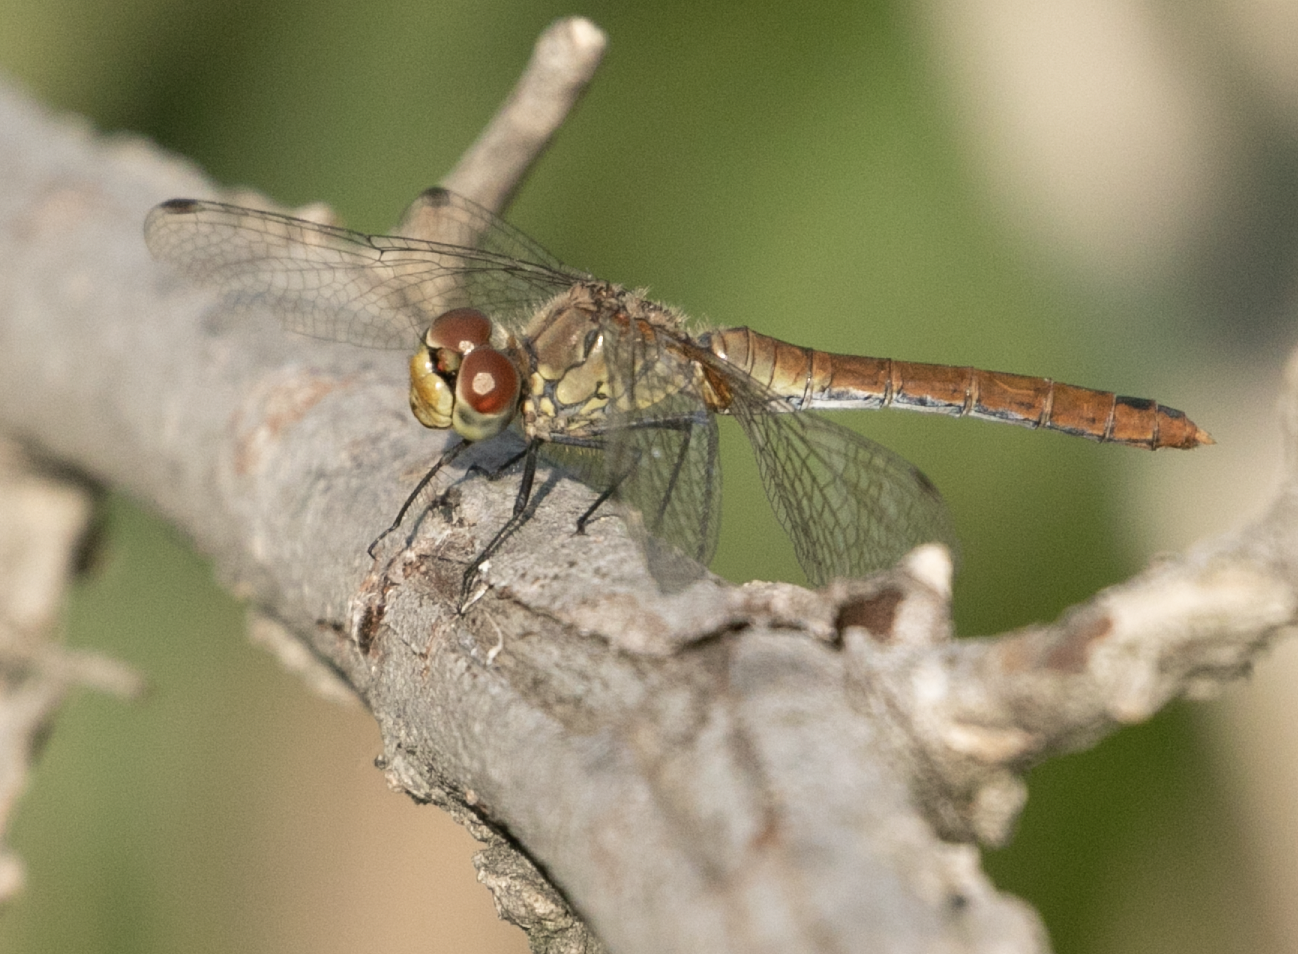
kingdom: Animalia
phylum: Arthropoda
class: Insecta
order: Odonata
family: Libellulidae
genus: Sympetrum
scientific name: Sympetrum sanguineum
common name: Ruddy darter
